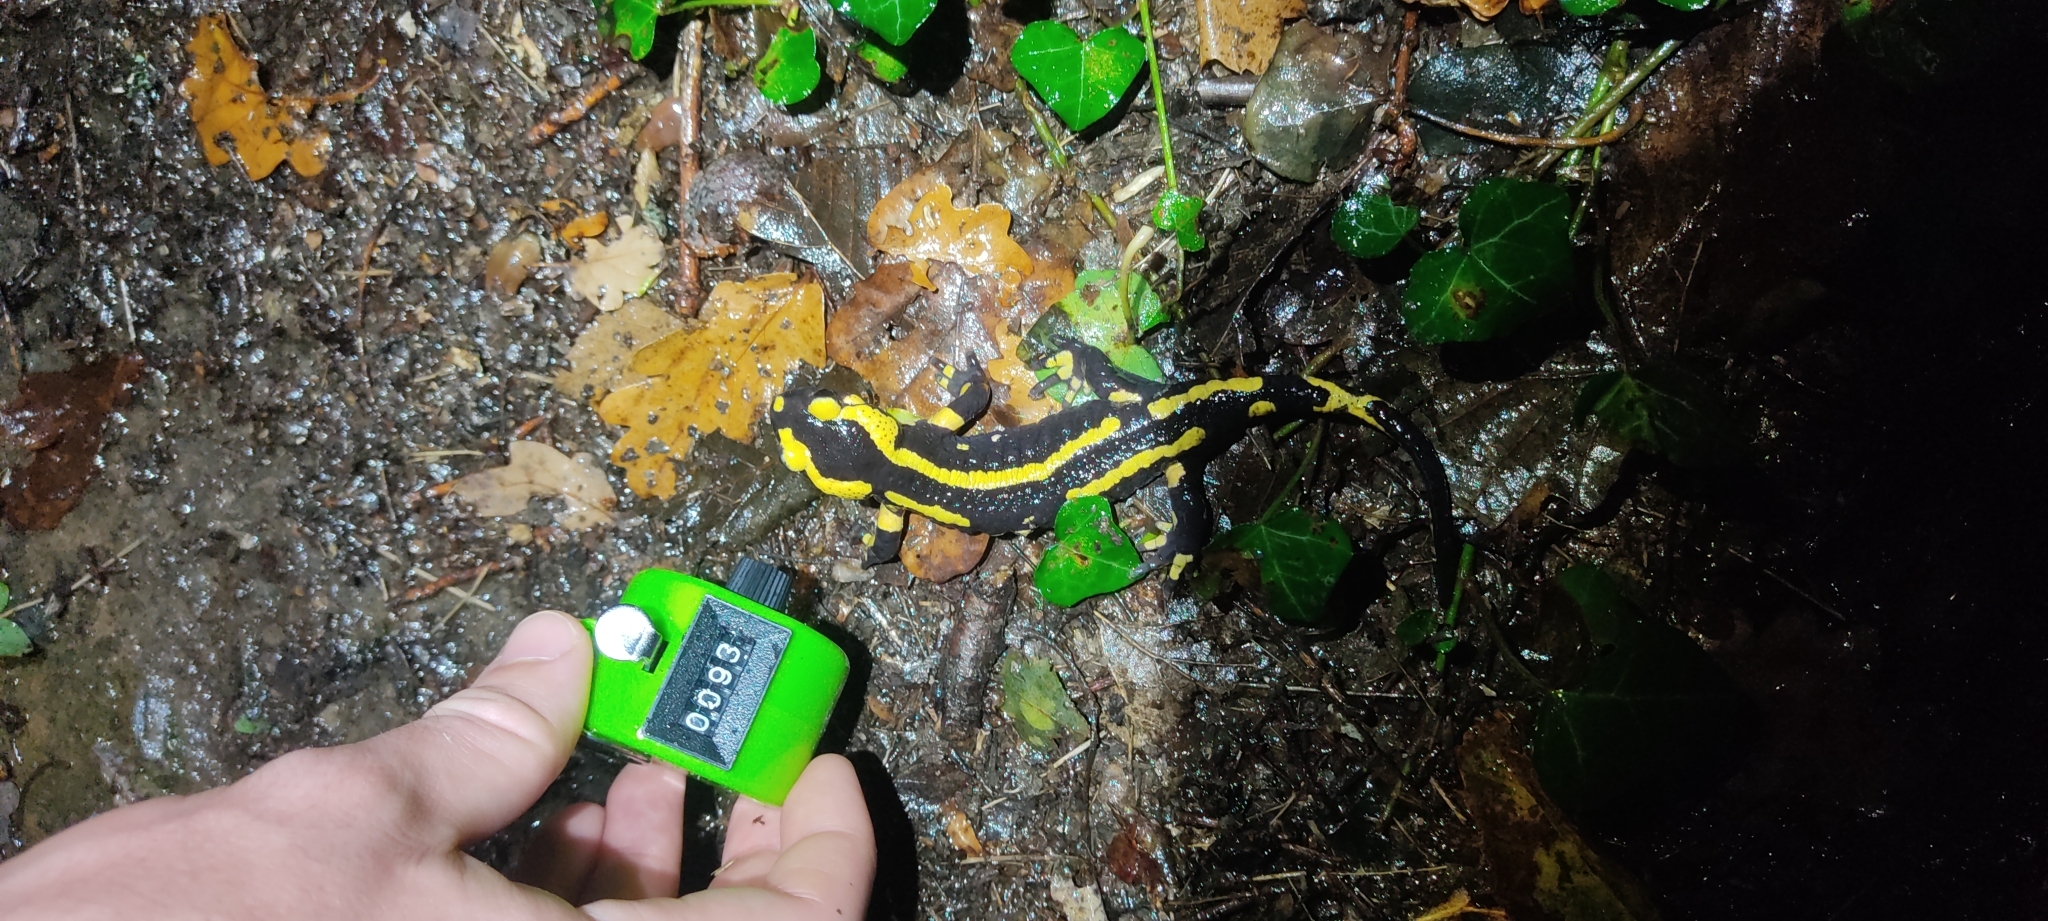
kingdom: Animalia
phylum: Chordata
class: Amphibia
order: Caudata
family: Salamandridae
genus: Salamandra
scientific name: Salamandra salamandra
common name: Fire salamander
